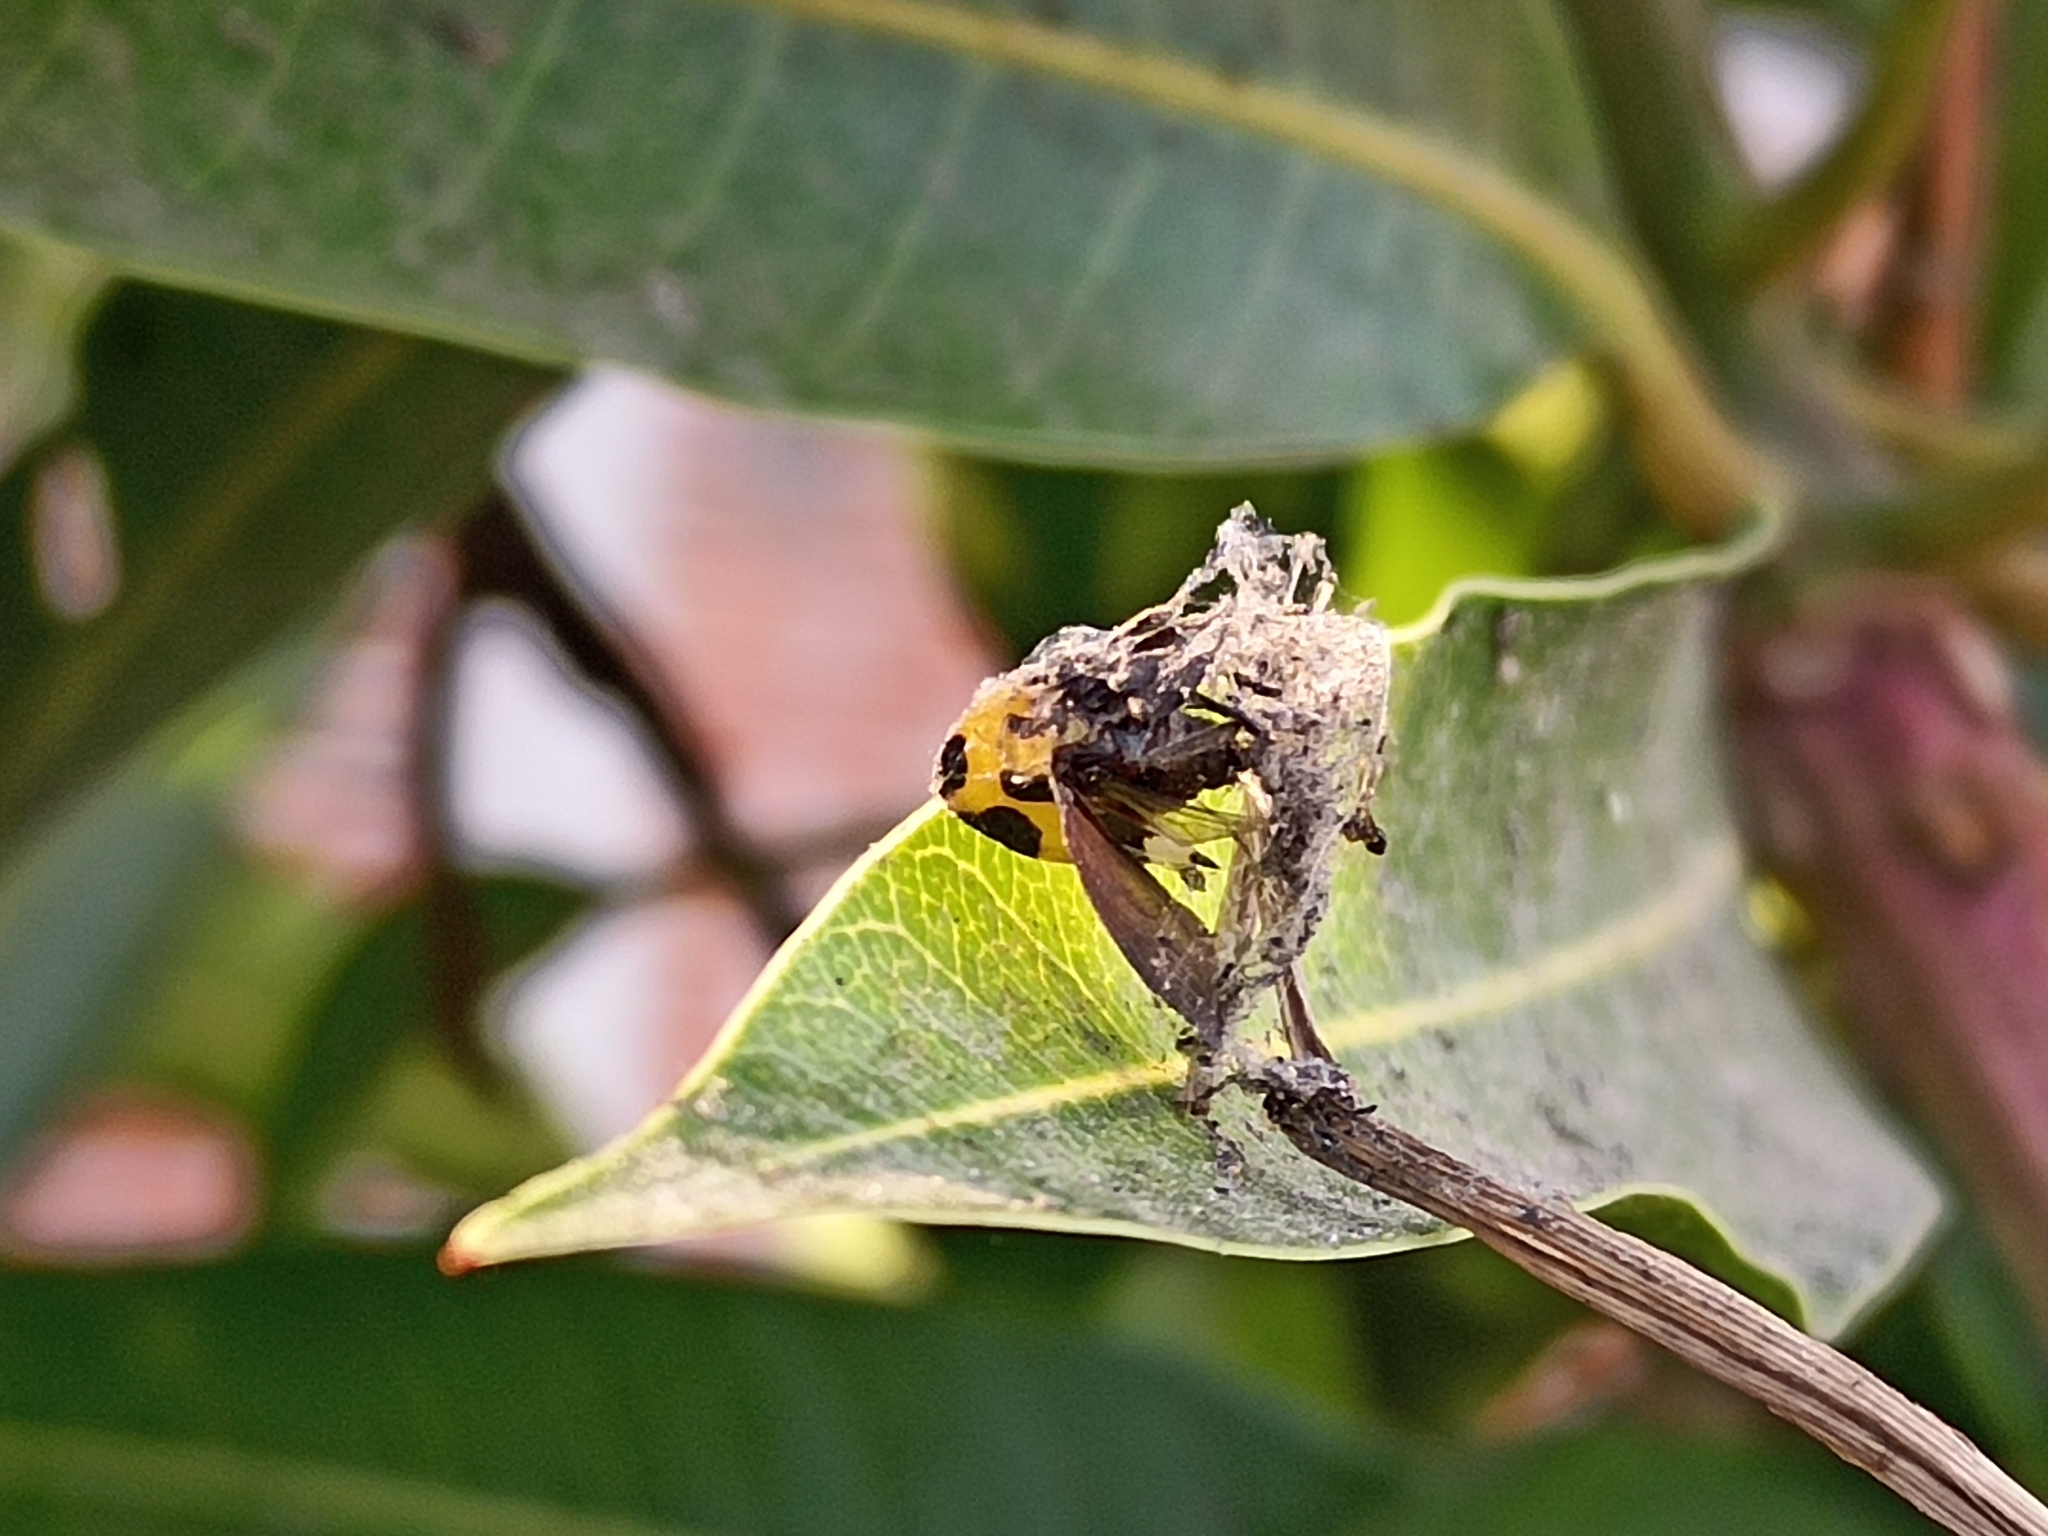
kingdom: Animalia
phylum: Arthropoda
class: Insecta
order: Hemiptera
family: Membracidae
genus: Membracis
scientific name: Membracis mexicana
